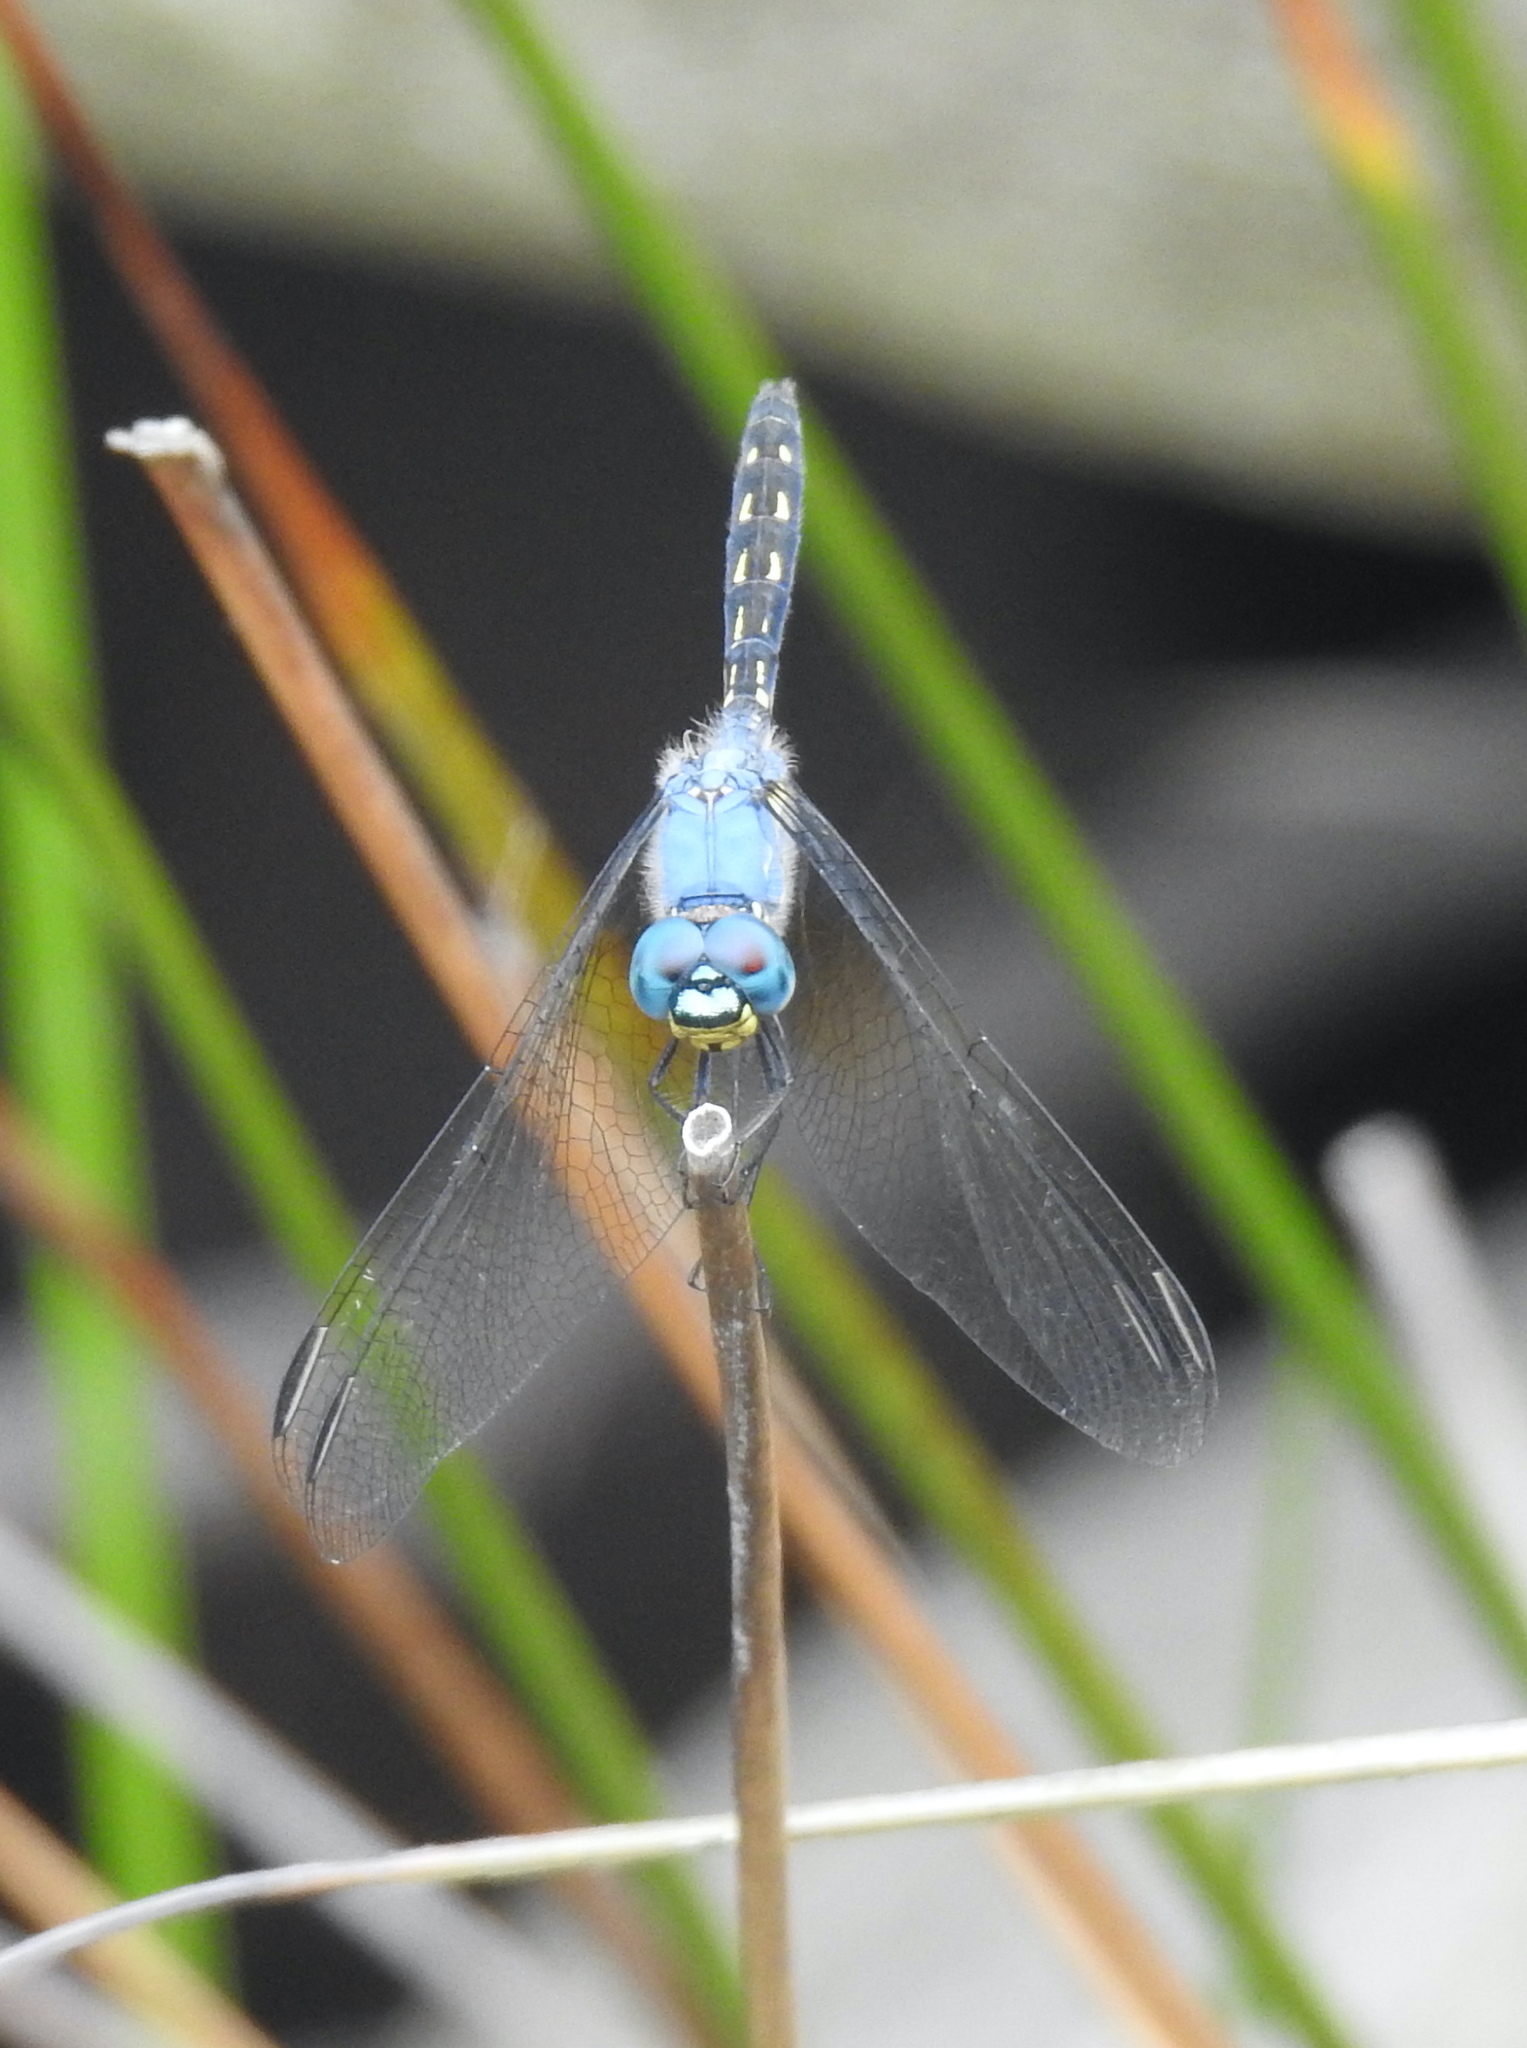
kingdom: Animalia
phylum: Arthropoda
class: Insecta
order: Odonata
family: Libellulidae
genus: Trithemis
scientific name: Trithemis stictica
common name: Jaunty dropwing
